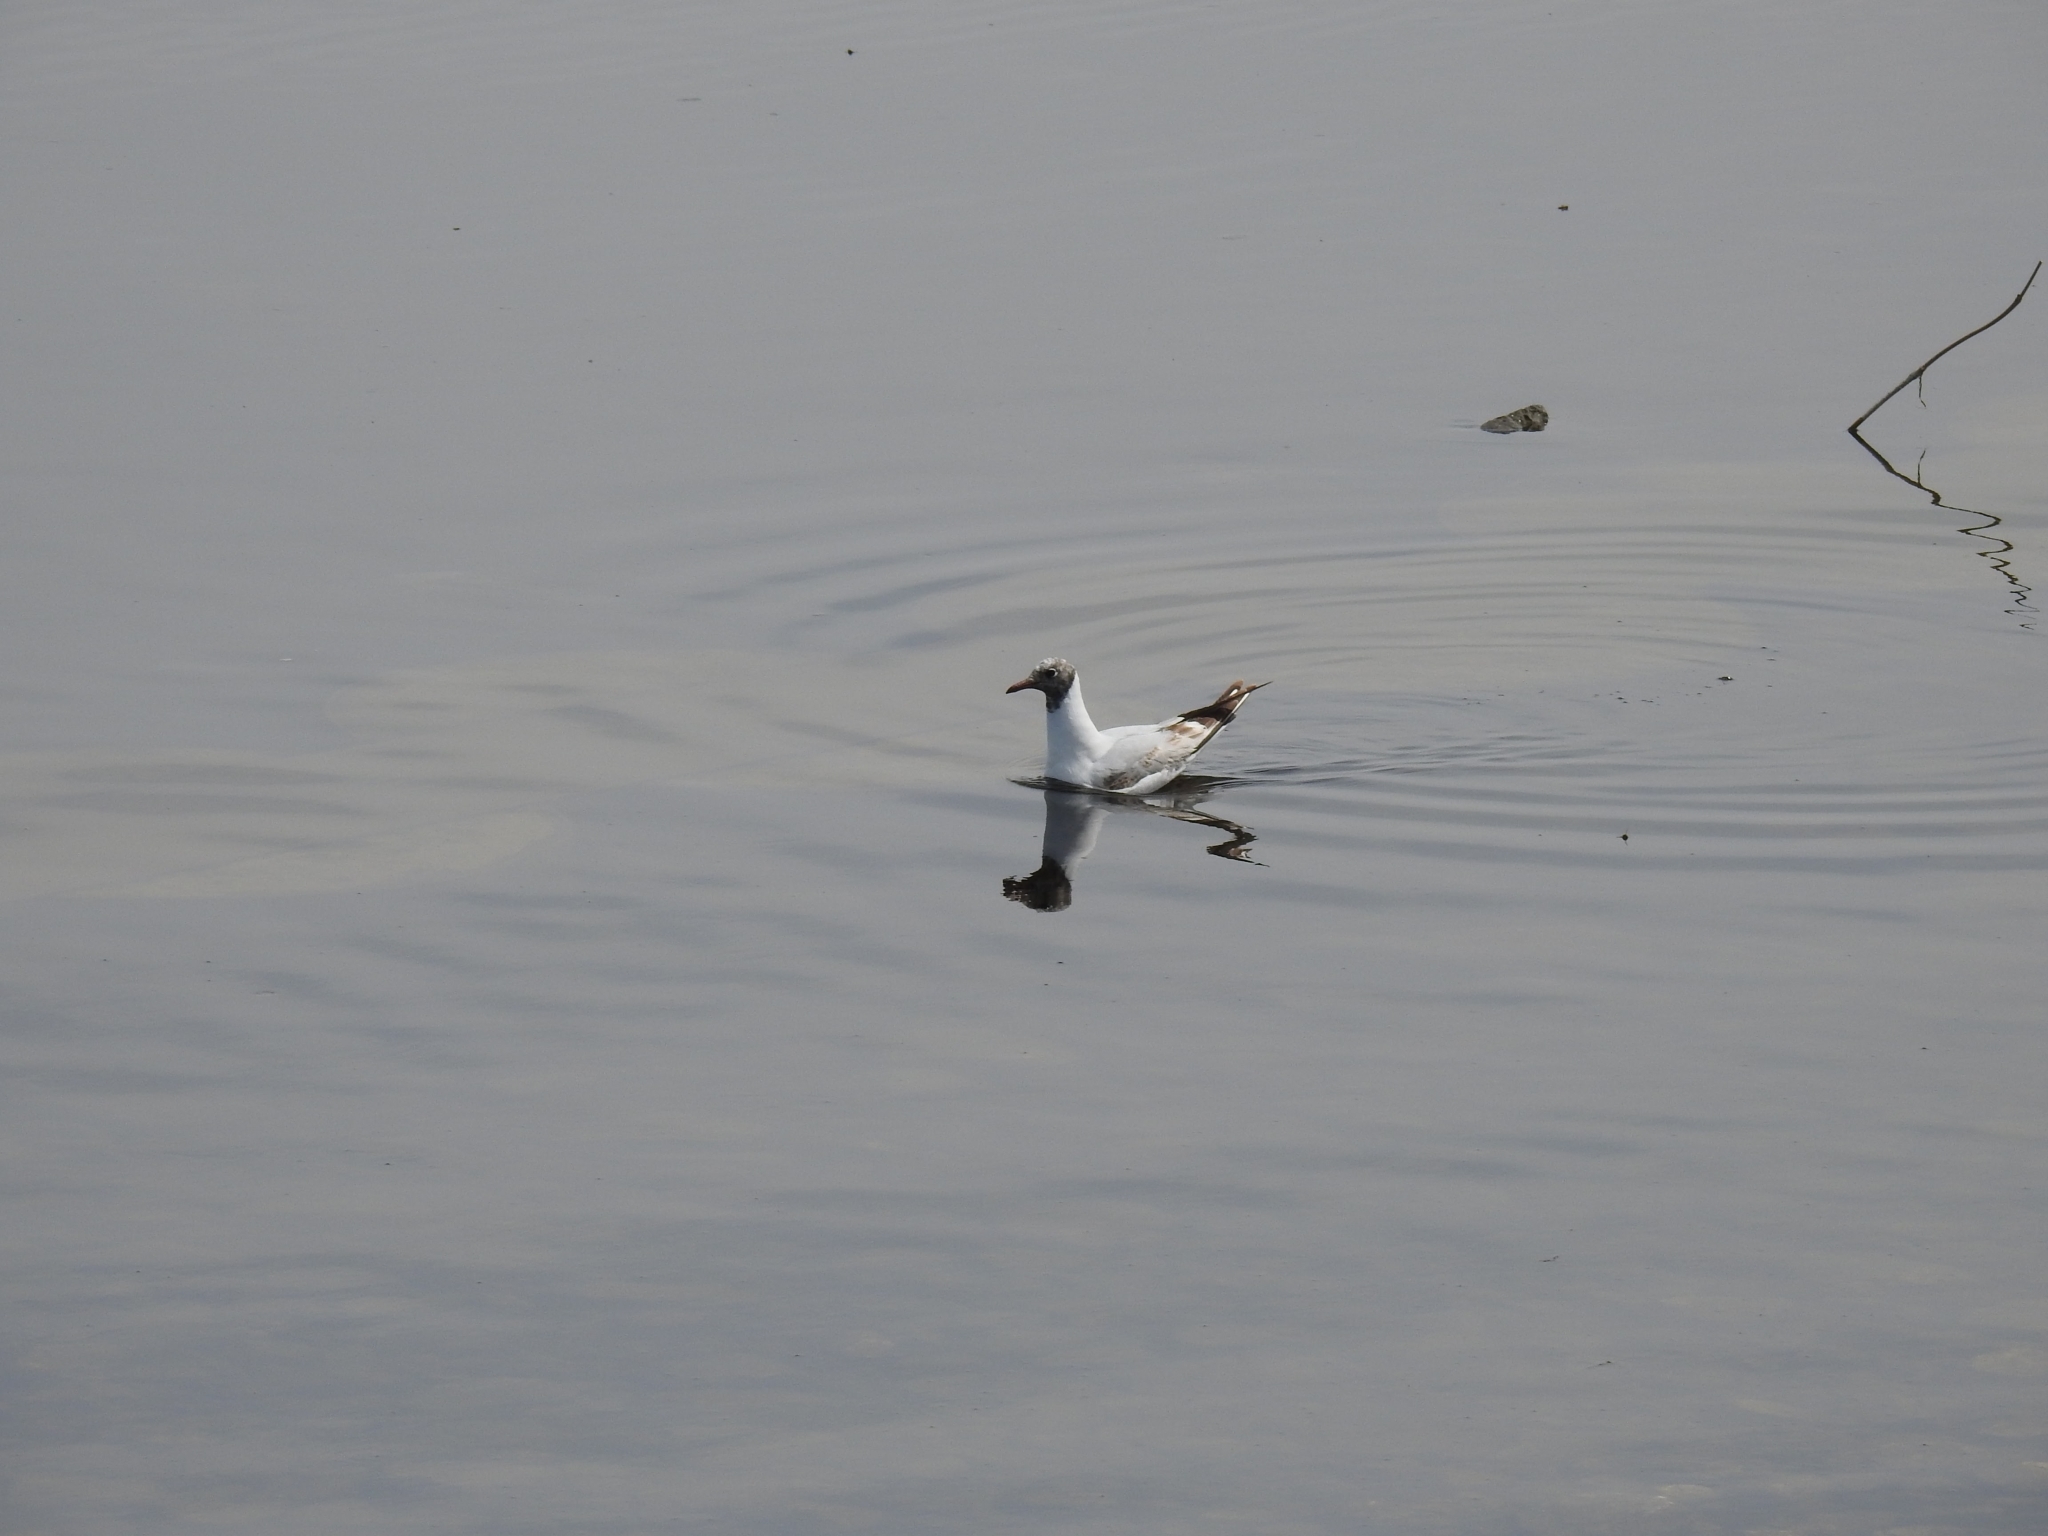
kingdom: Animalia
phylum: Chordata
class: Aves
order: Charadriiformes
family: Laridae
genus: Chroicocephalus
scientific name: Chroicocephalus ridibundus
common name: Black-headed gull
